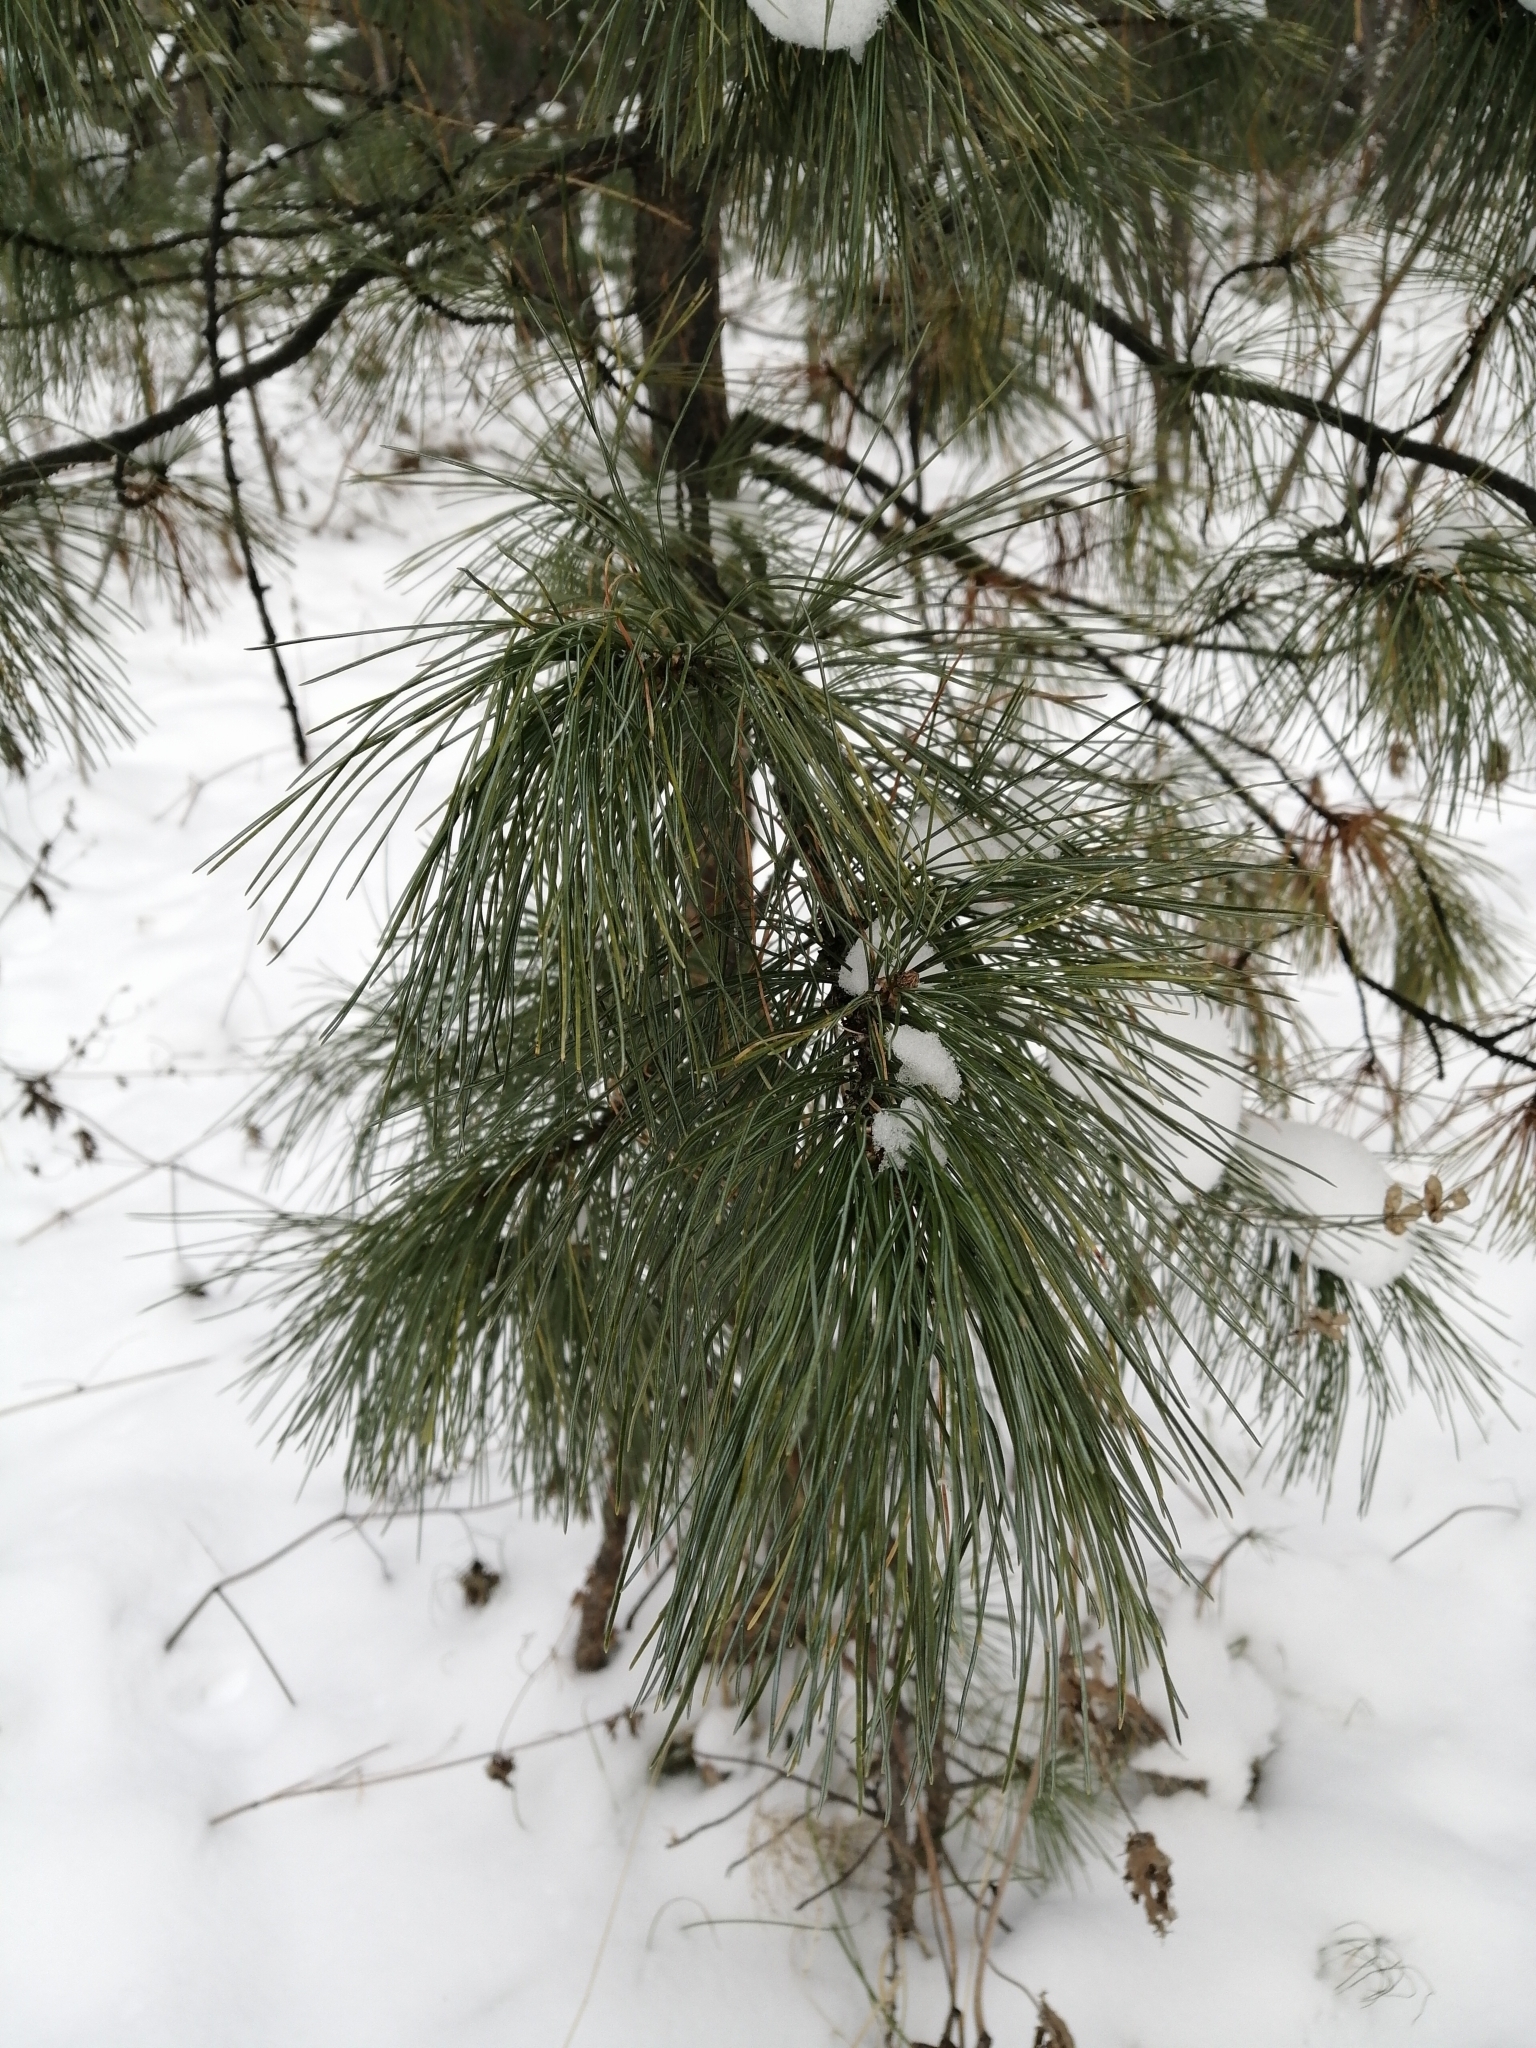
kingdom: Plantae
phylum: Tracheophyta
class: Pinopsida
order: Pinales
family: Pinaceae
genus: Pinus
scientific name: Pinus sibirica
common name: Siberian pine
